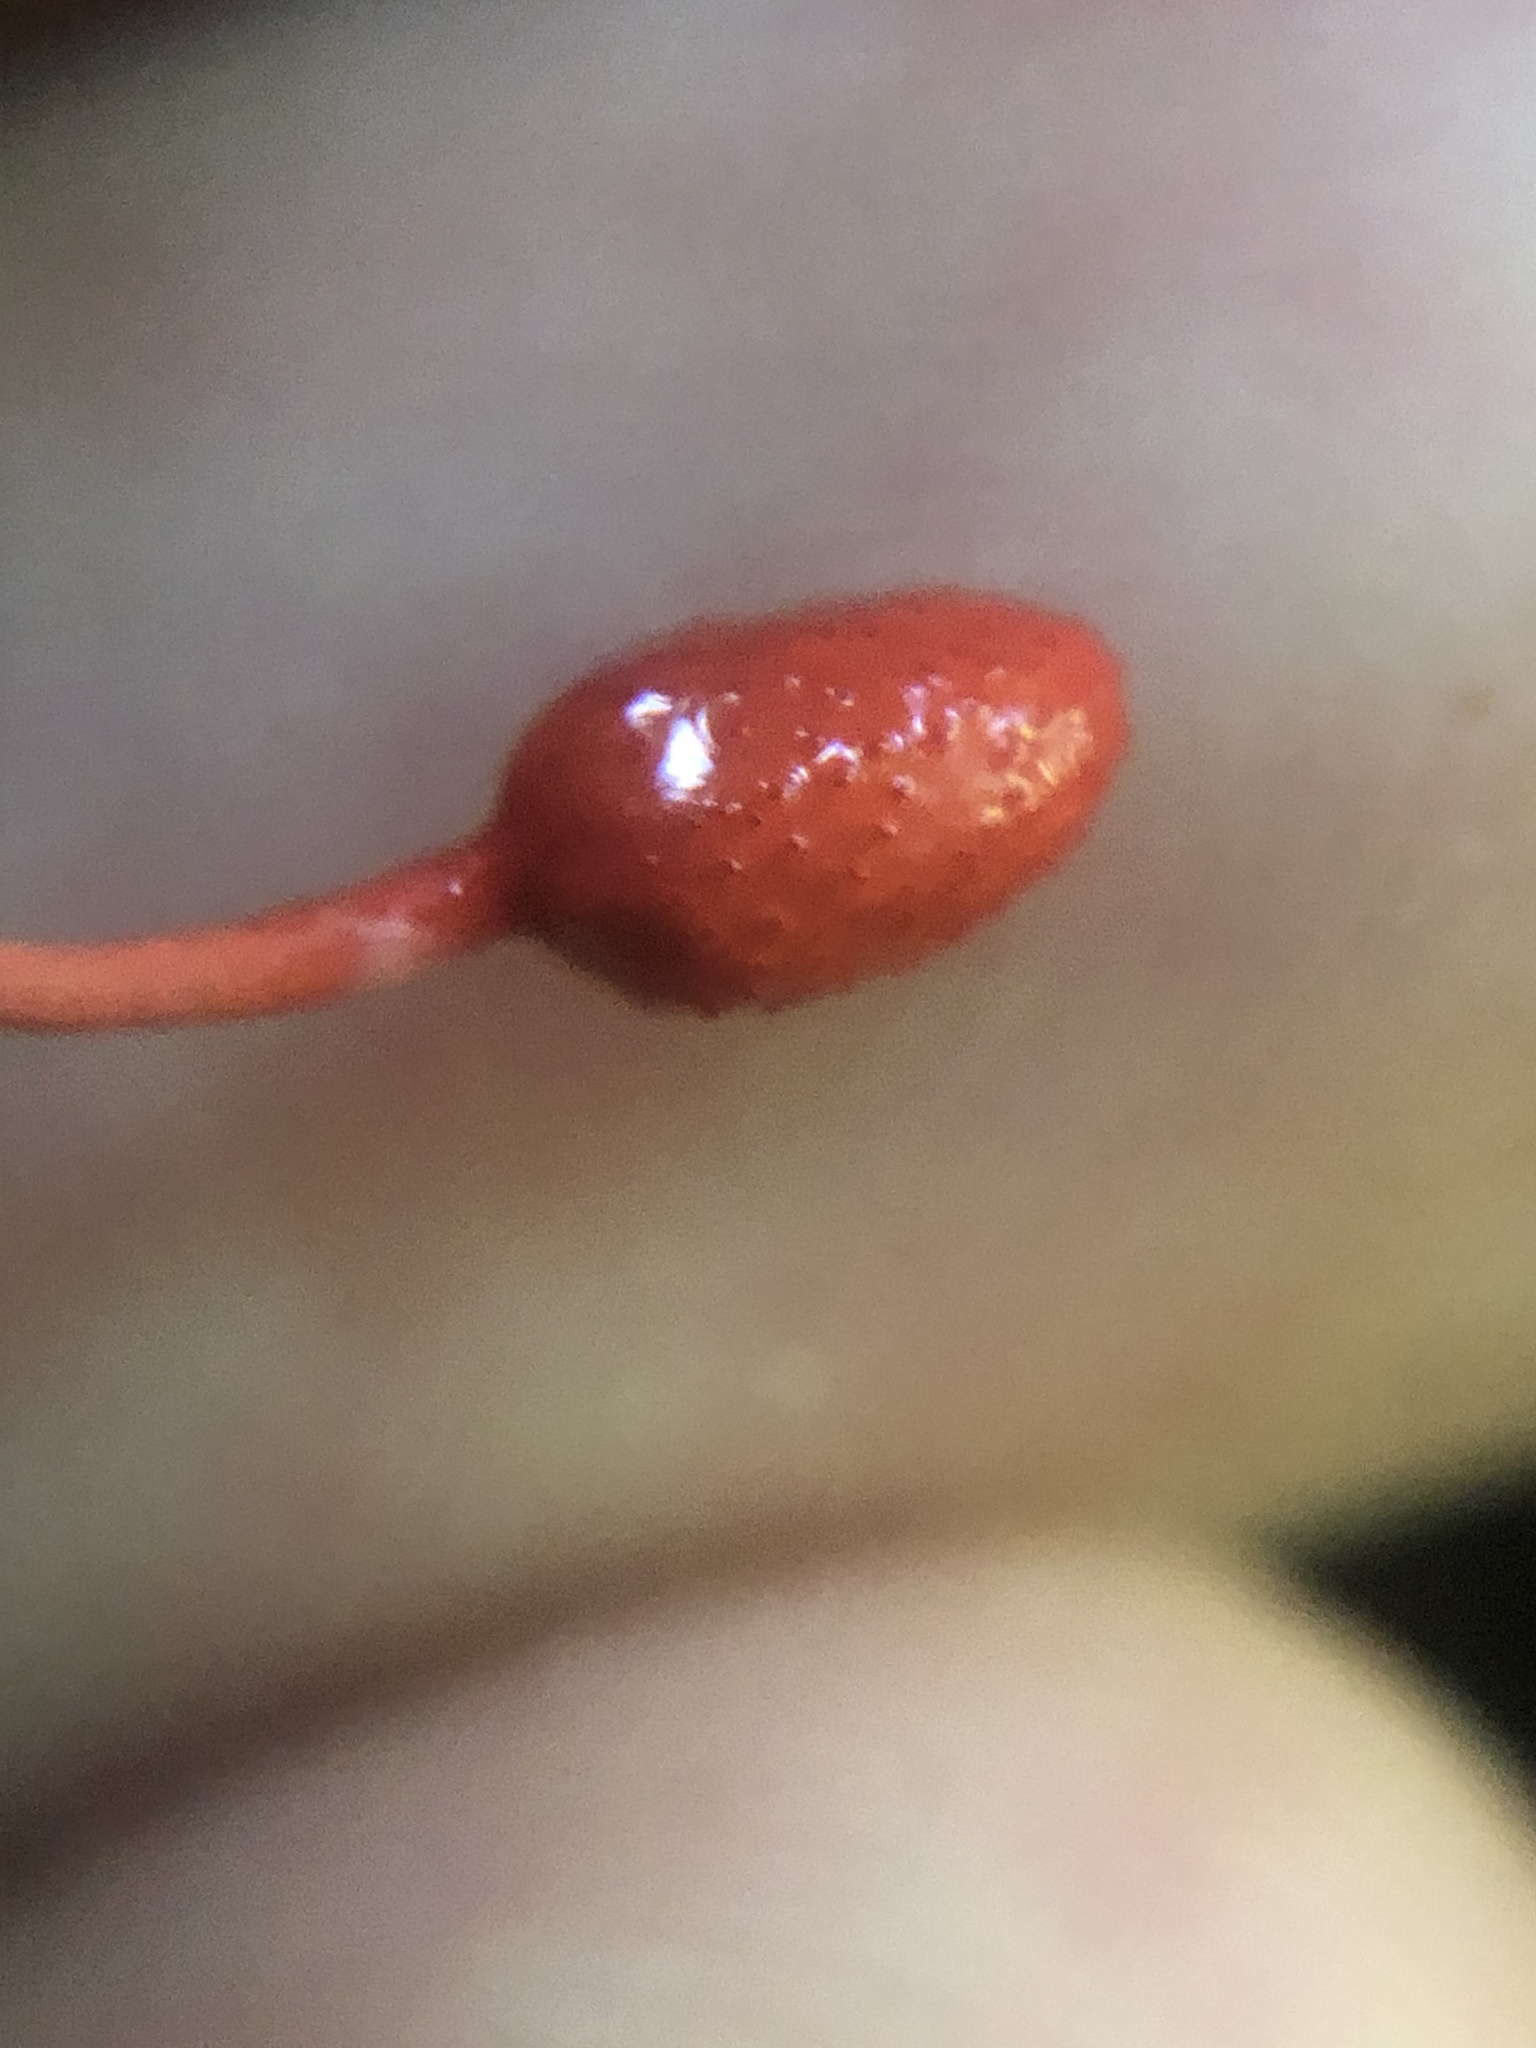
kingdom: Fungi
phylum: Ascomycota
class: Sordariomycetes
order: Hypocreales
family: Ophiocordycipitaceae
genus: Ophiocordyceps
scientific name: Ophiocordyceps australis
